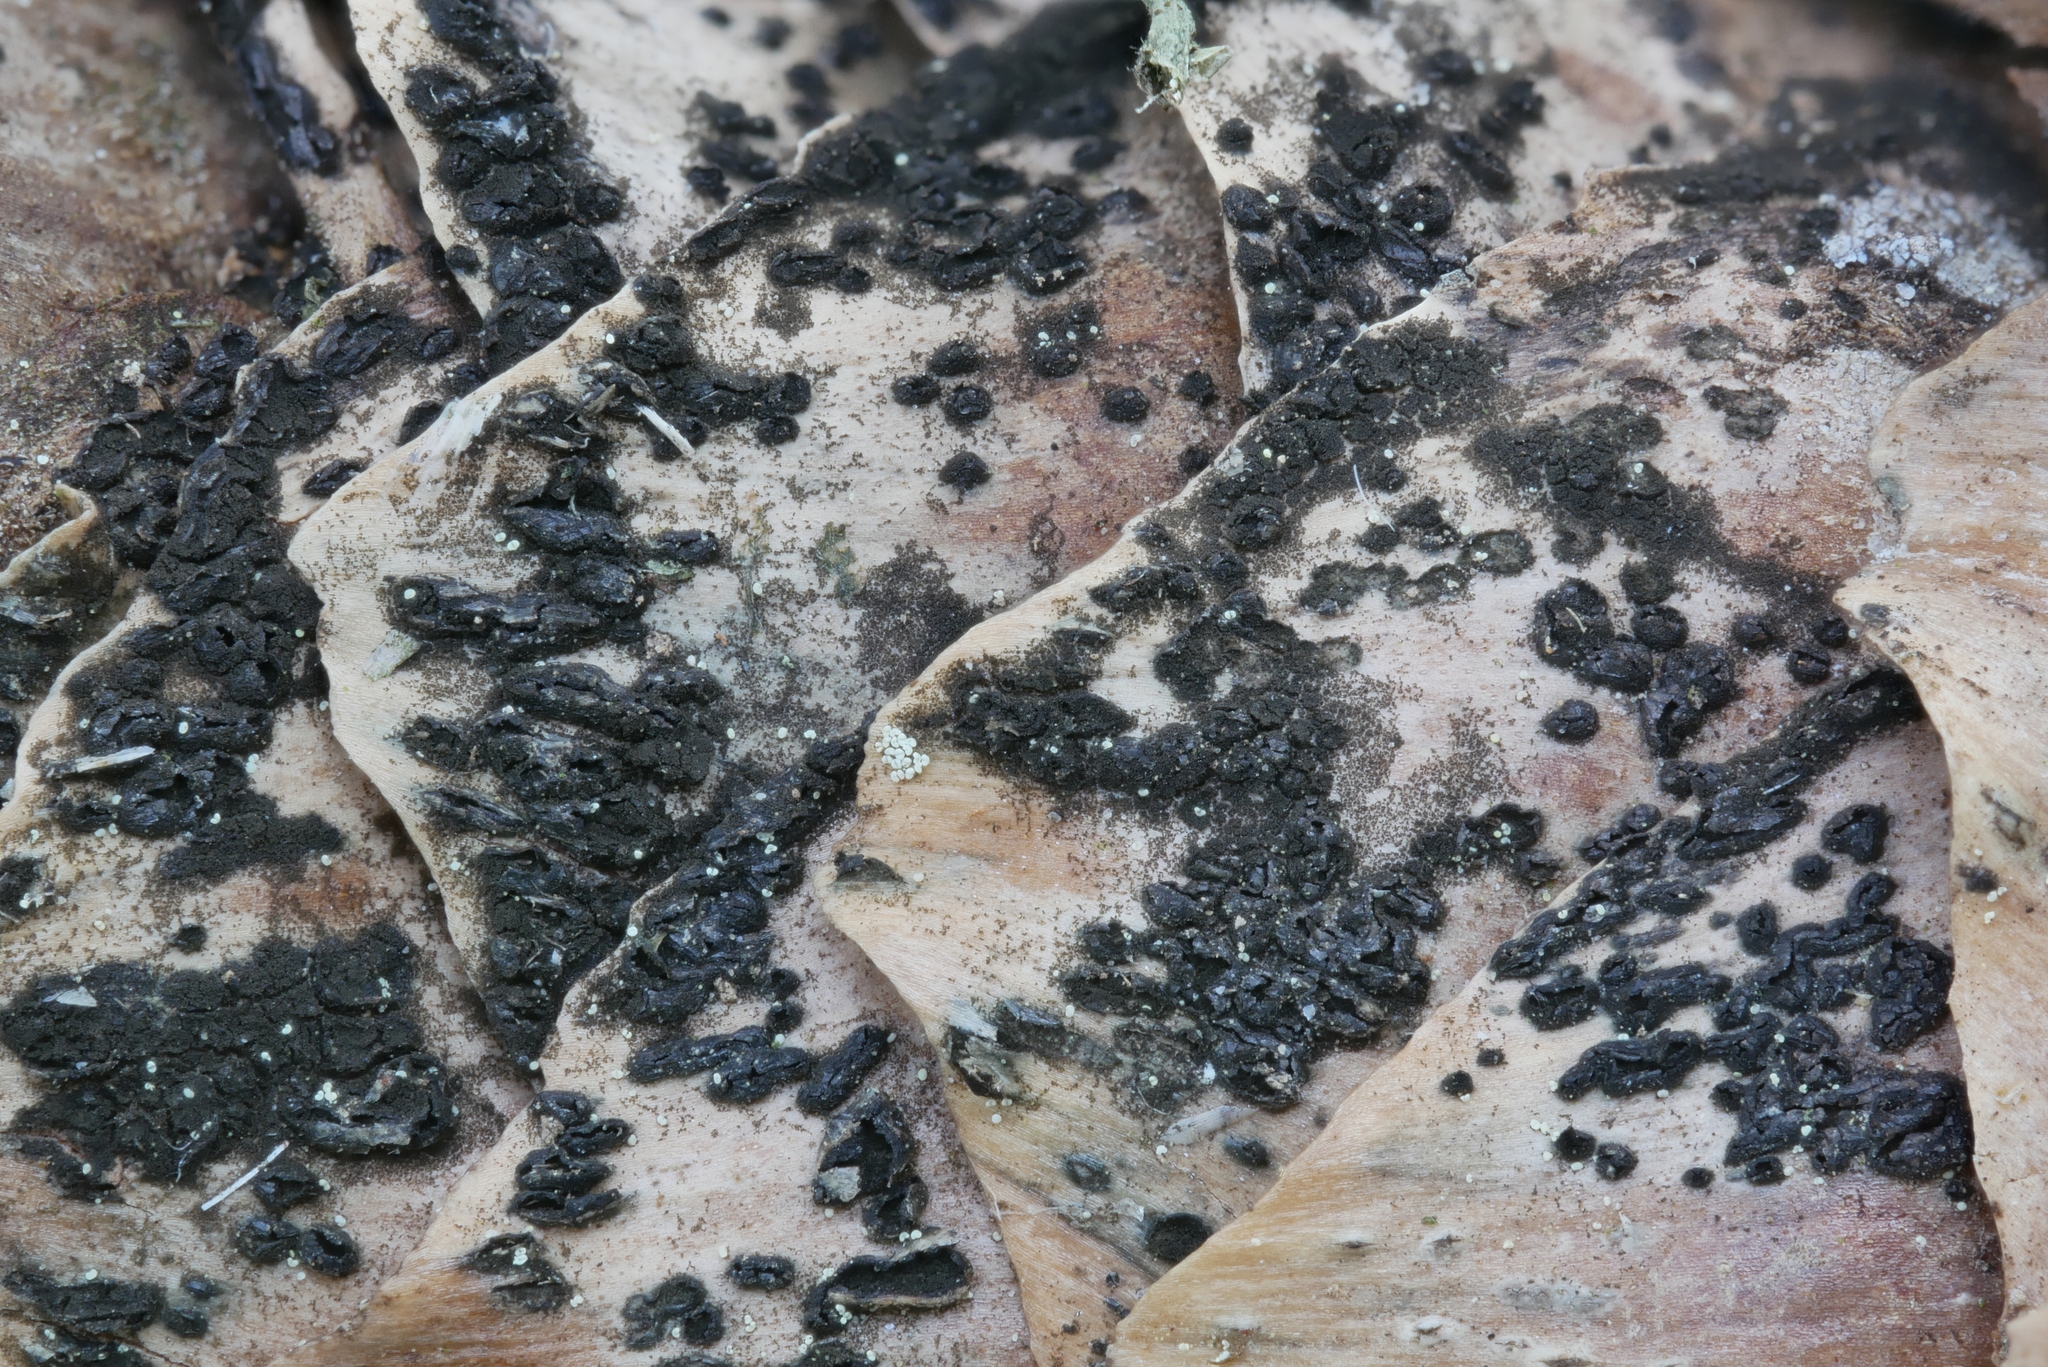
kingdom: Fungi
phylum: Ascomycota
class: Dothideomycetes
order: Pleosporales
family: Melanommataceae
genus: Phragmotrichum
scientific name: Phragmotrichum
